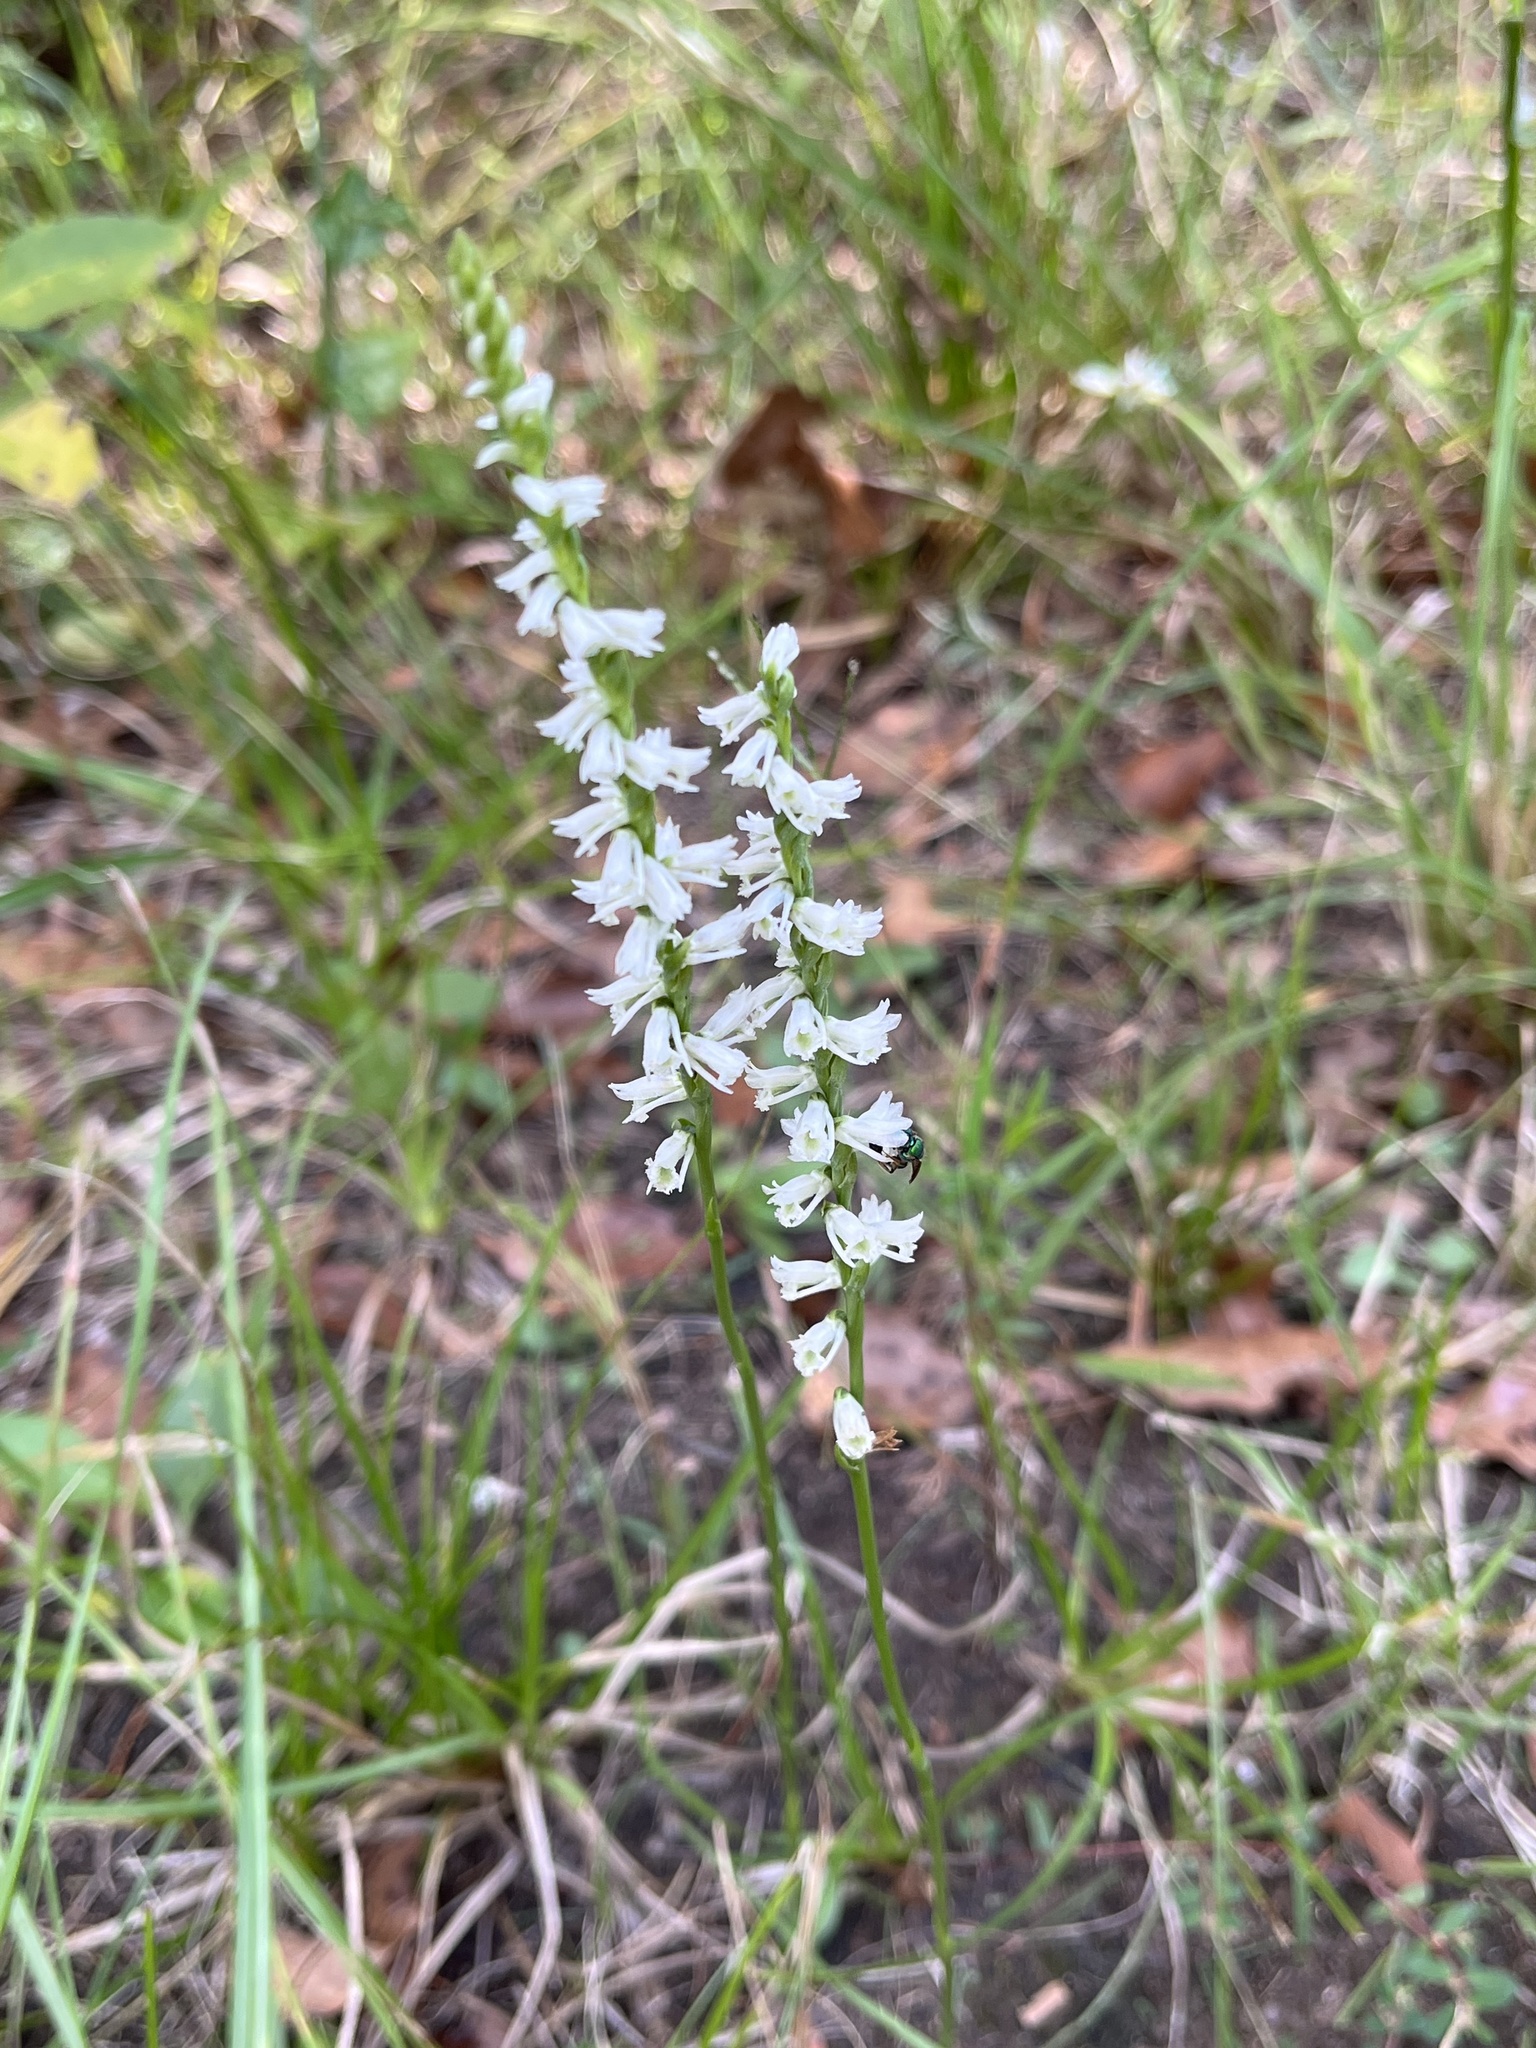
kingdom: Plantae
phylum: Tracheophyta
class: Liliopsida
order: Asparagales
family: Orchidaceae
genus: Spiranthes
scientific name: Spiranthes lacera
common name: Northern slender ladies'-tresses
